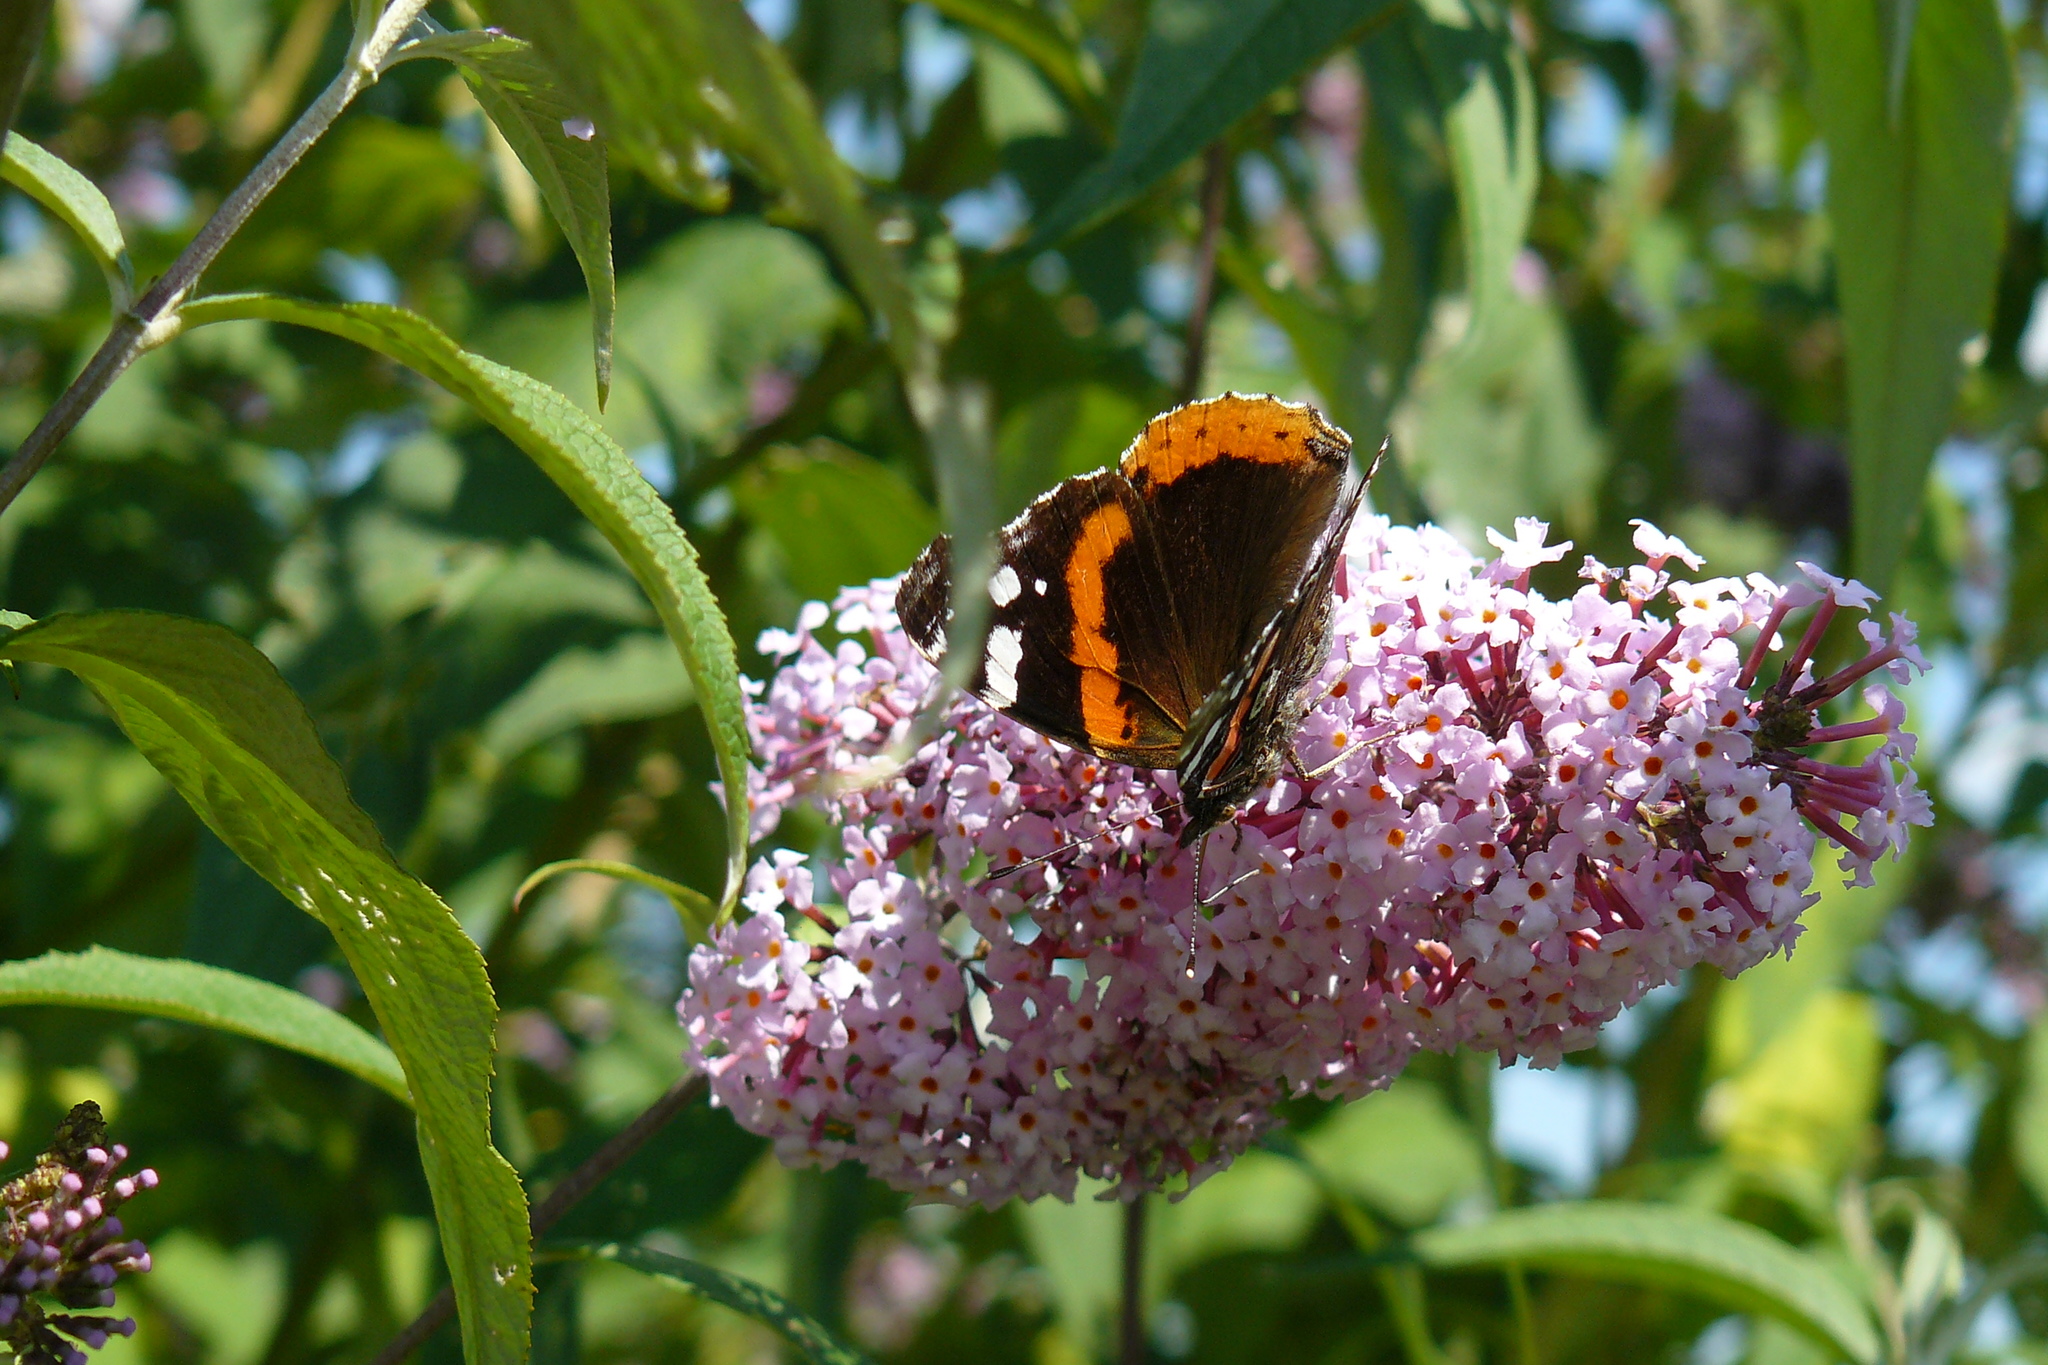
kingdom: Animalia
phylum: Arthropoda
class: Insecta
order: Lepidoptera
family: Nymphalidae
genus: Vanessa
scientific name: Vanessa atalanta
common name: Red admiral
